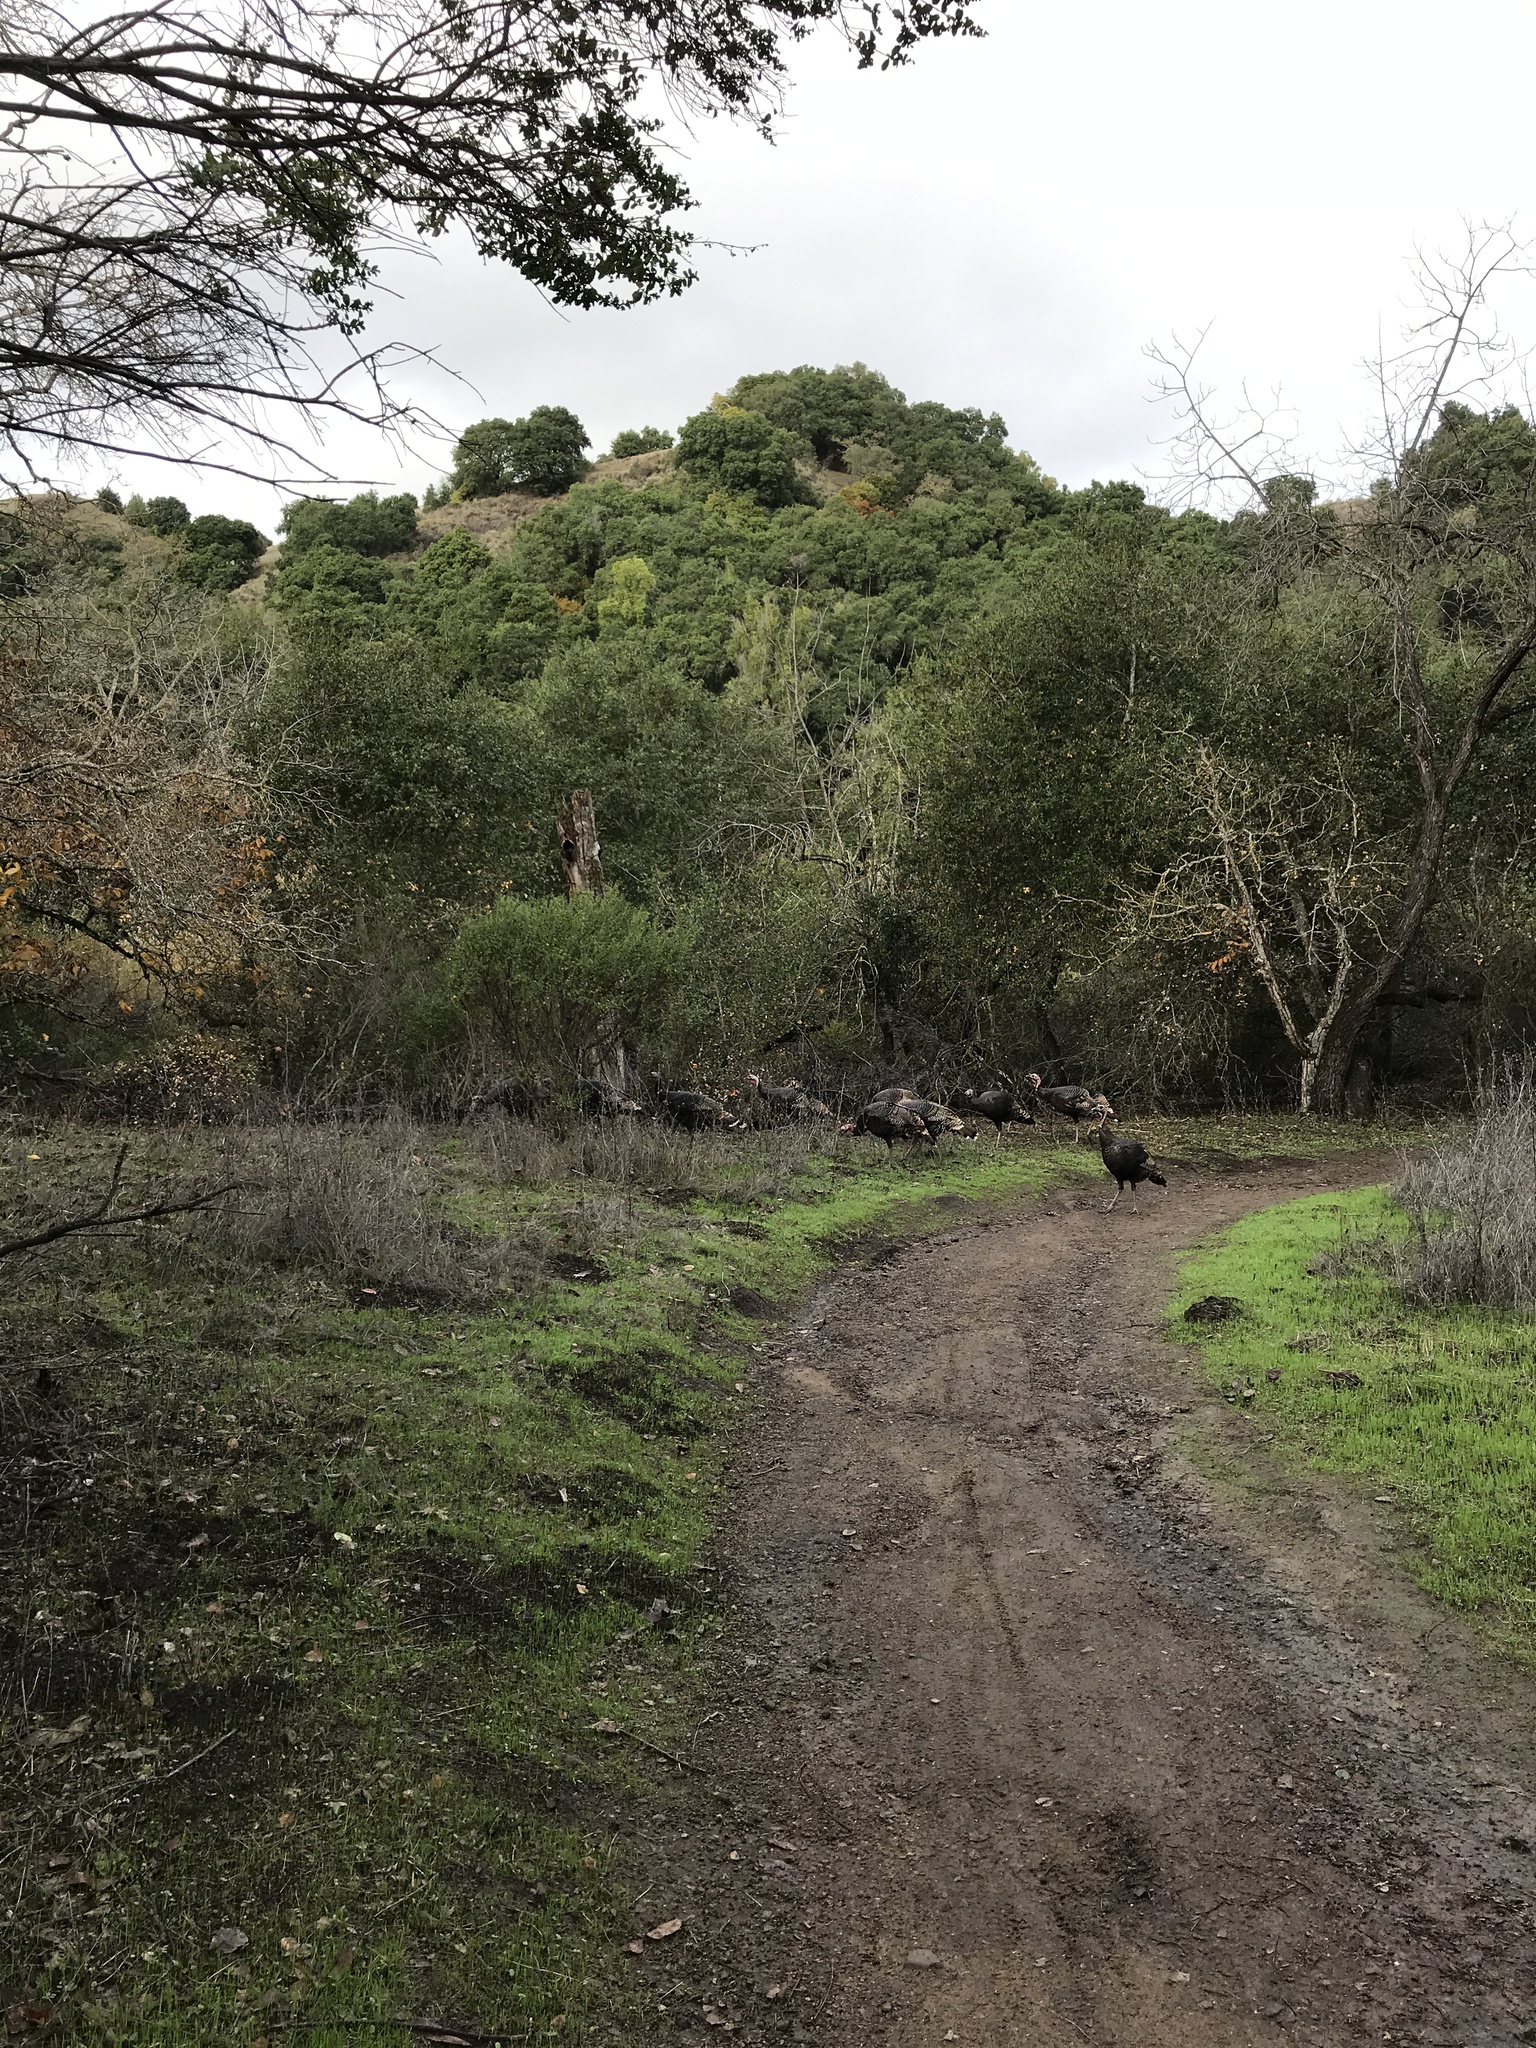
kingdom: Animalia
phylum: Chordata
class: Aves
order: Galliformes
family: Phasianidae
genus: Meleagris
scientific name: Meleagris gallopavo
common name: Wild turkey
